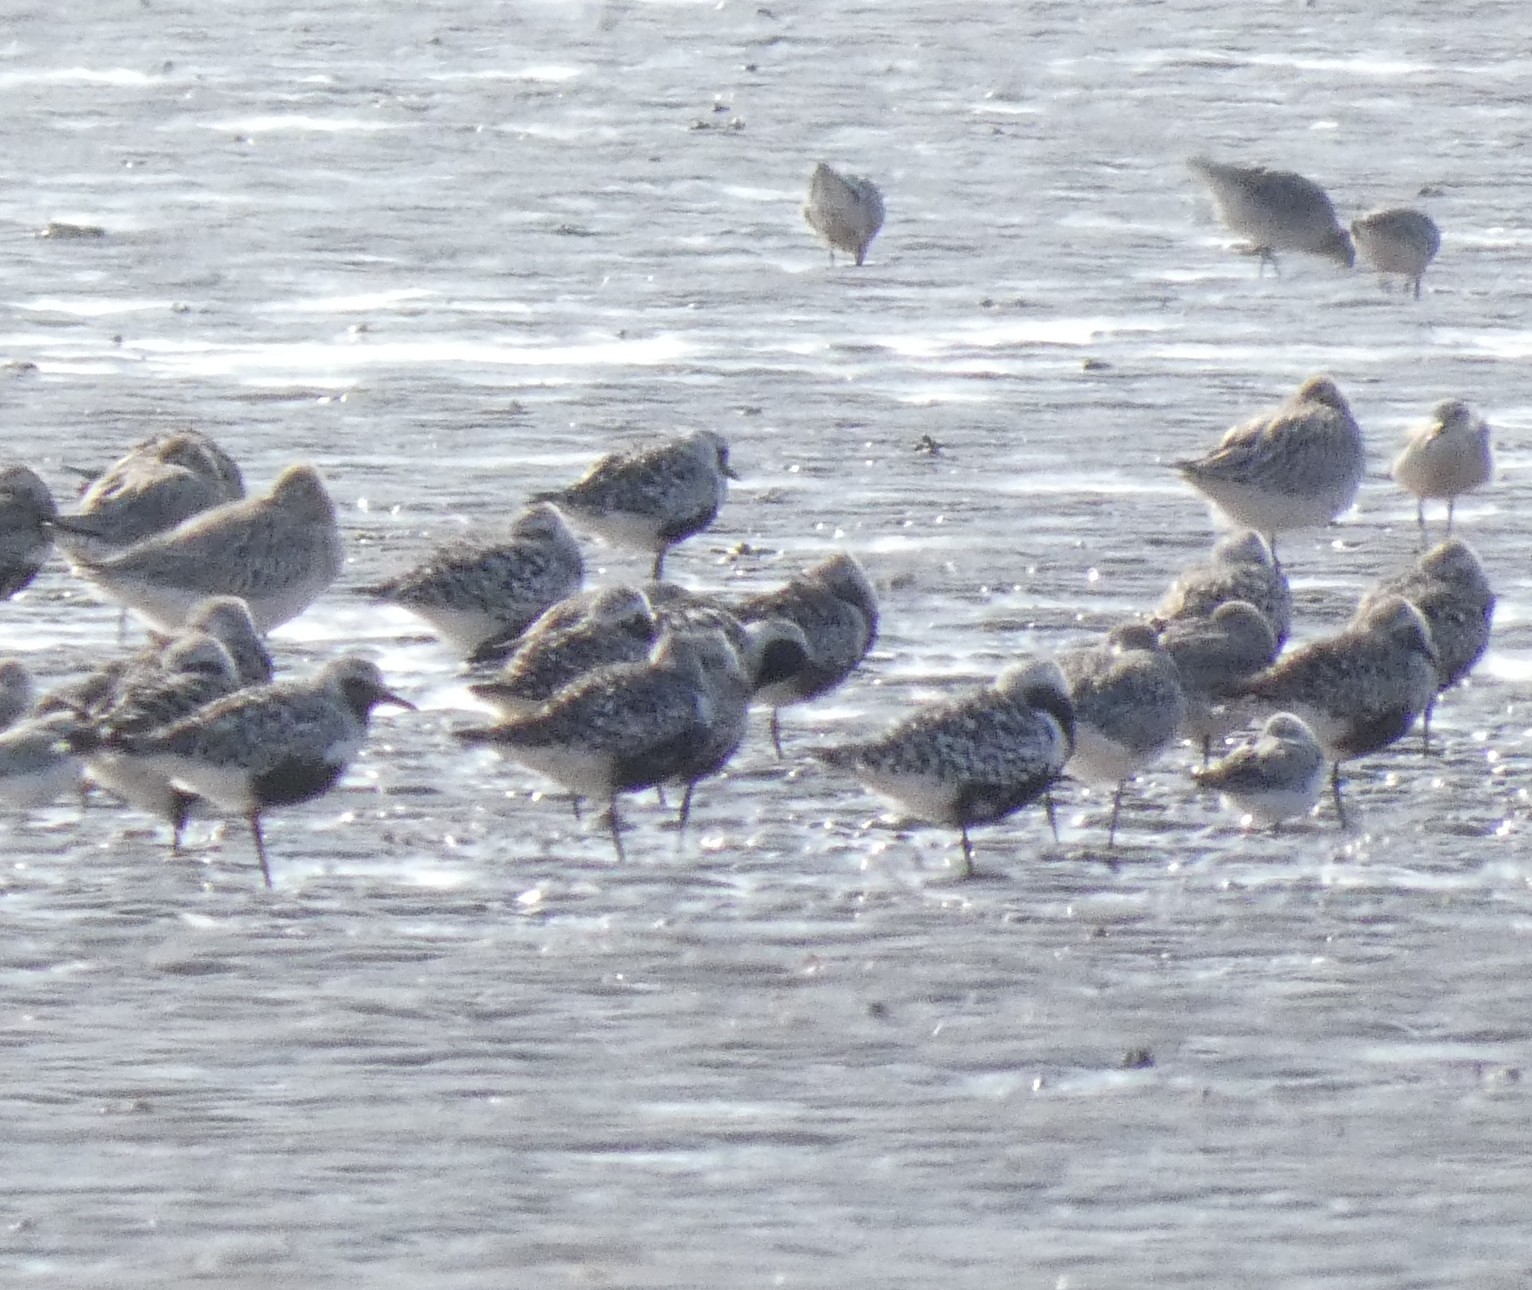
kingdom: Animalia
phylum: Chordata
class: Aves
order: Charadriiformes
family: Charadriidae
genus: Pluvialis
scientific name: Pluvialis squatarola
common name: Grey plover
